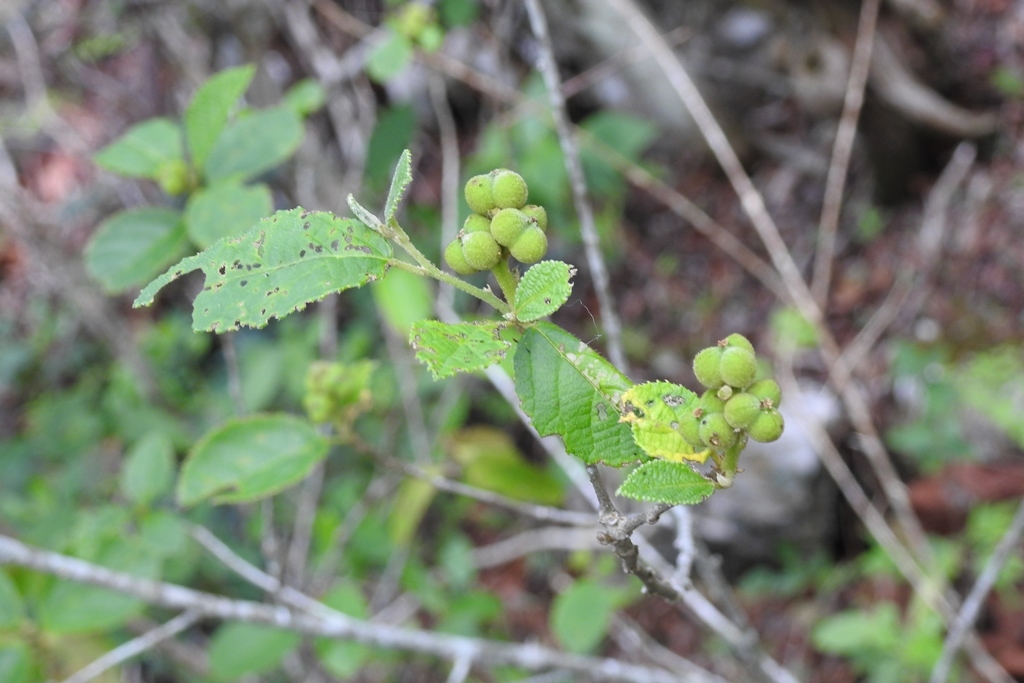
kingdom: Plantae
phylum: Tracheophyta
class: Magnoliopsida
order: Malpighiales
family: Euphorbiaceae
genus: Bernardia
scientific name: Bernardia mexicana
